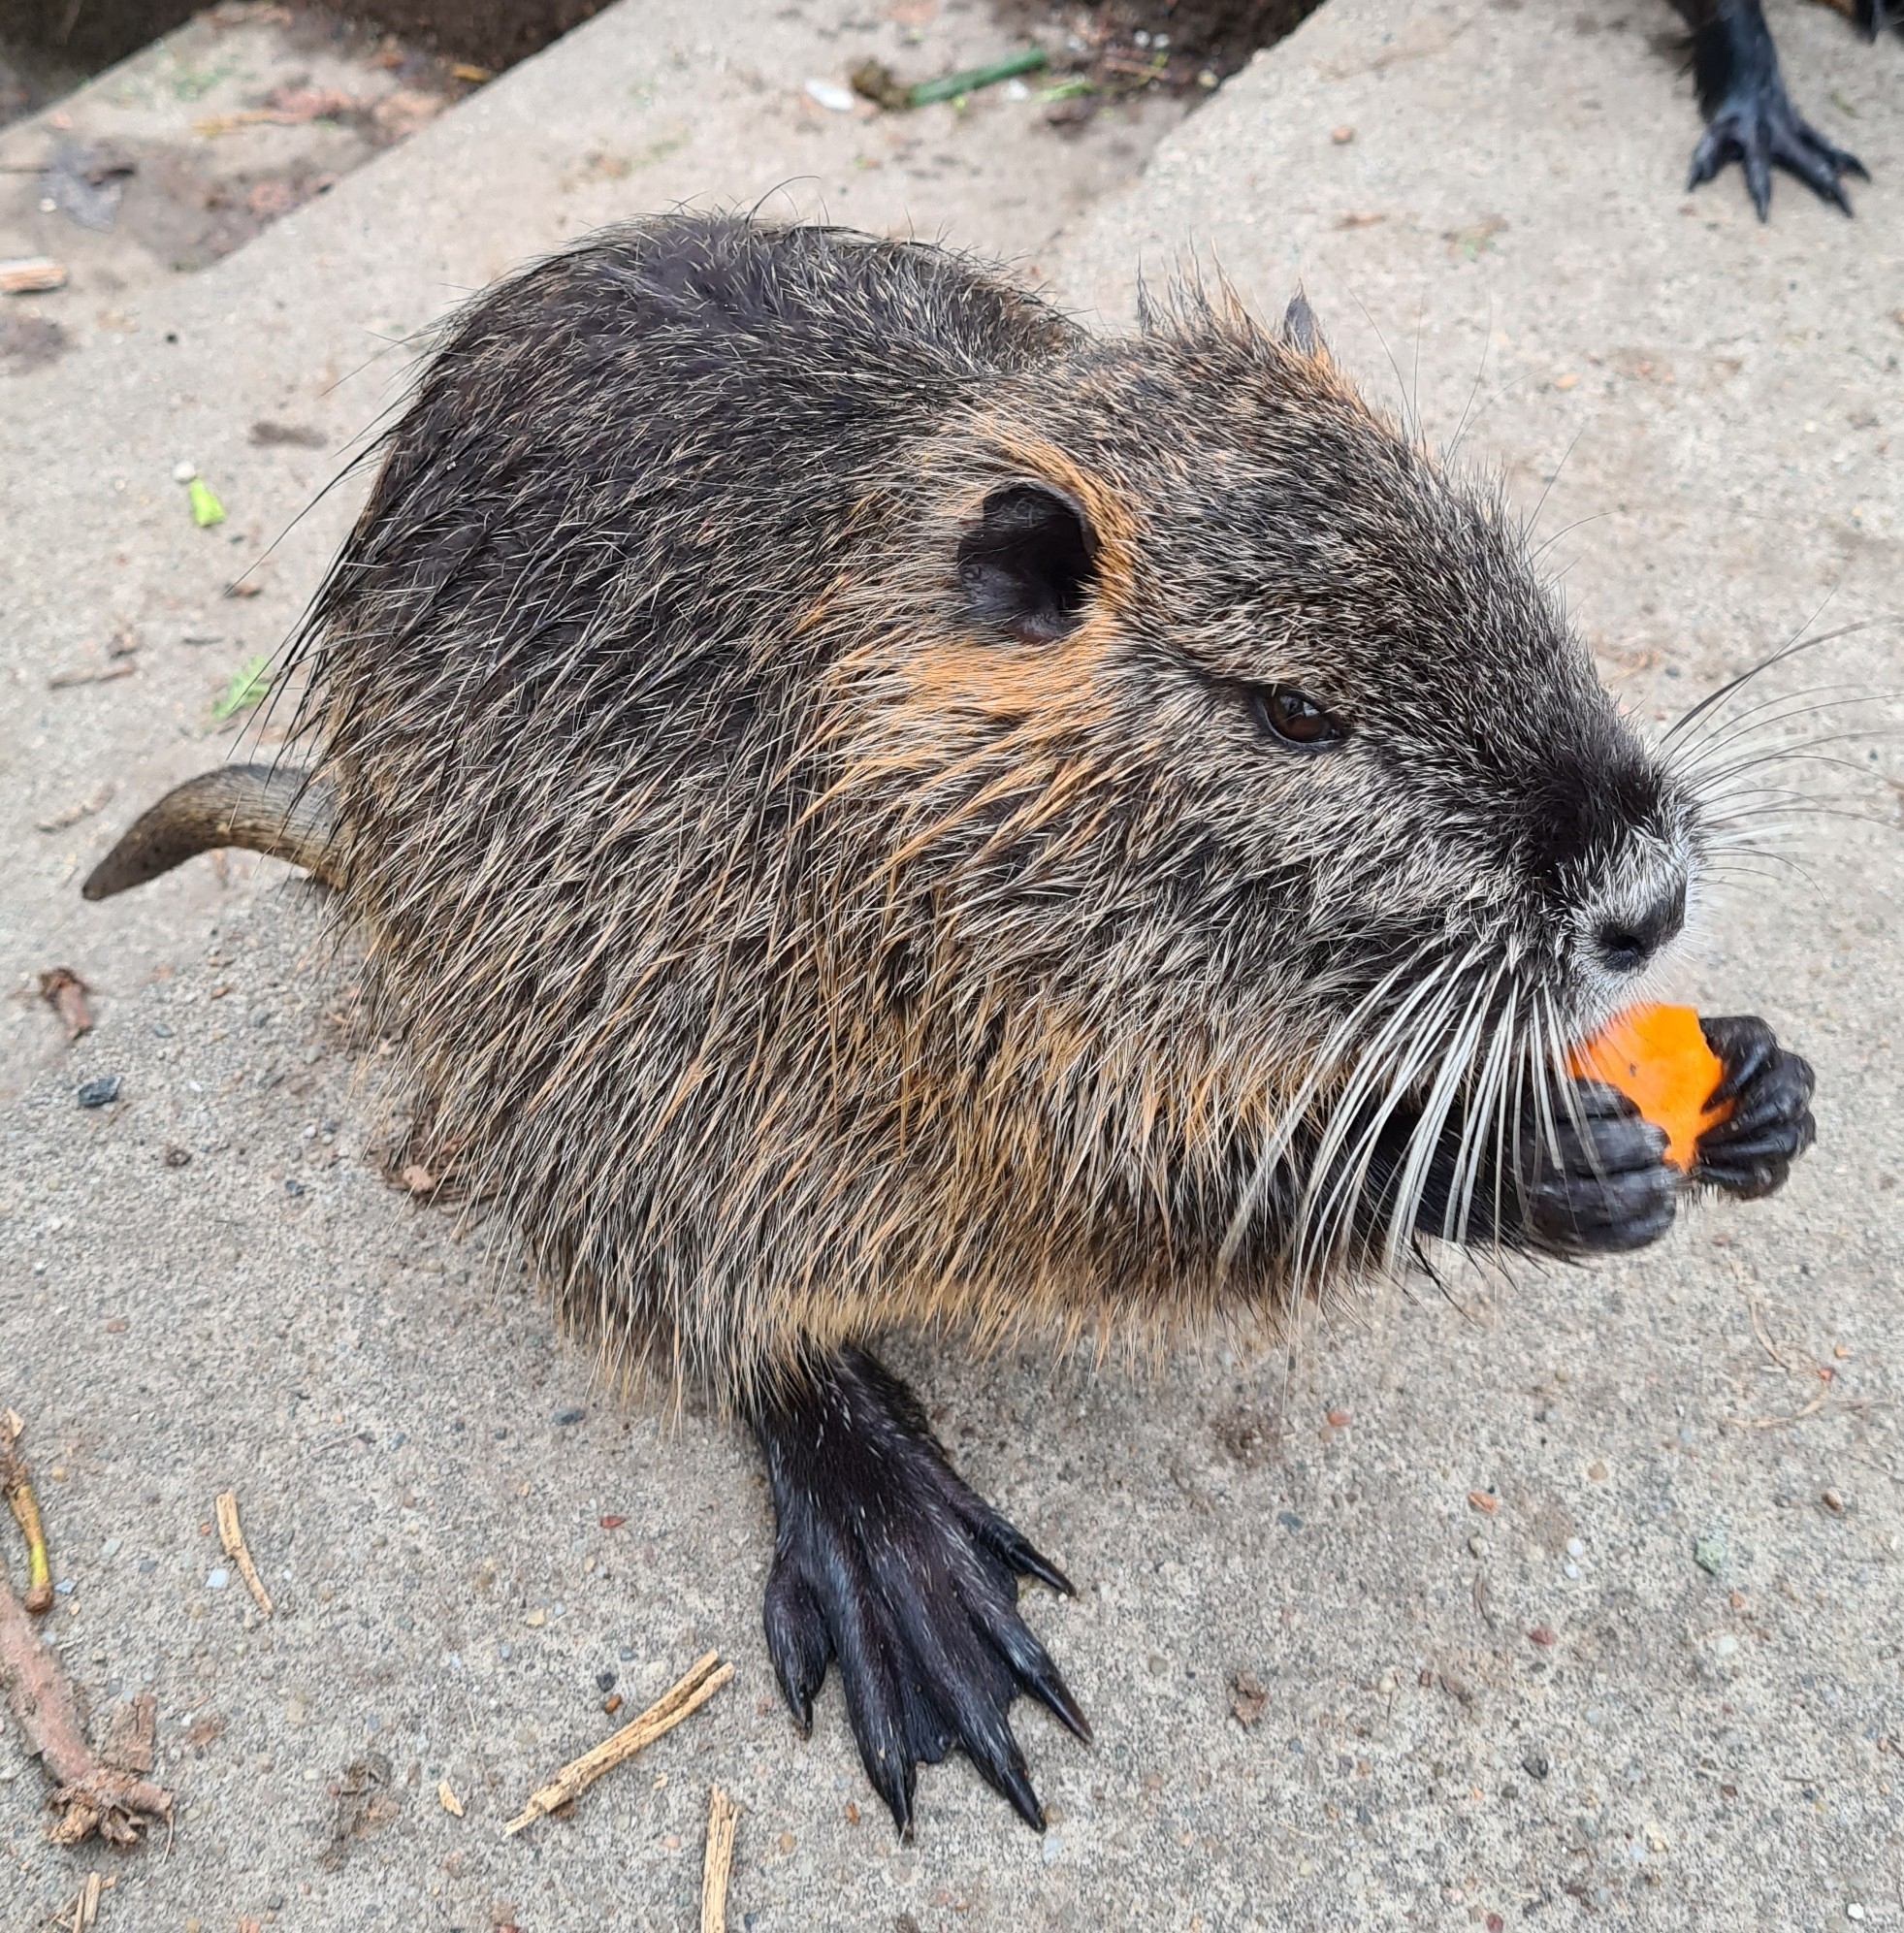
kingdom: Animalia
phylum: Chordata
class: Mammalia
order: Rodentia
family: Myocastoridae
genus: Myocastor
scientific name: Myocastor coypus
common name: Coypu
